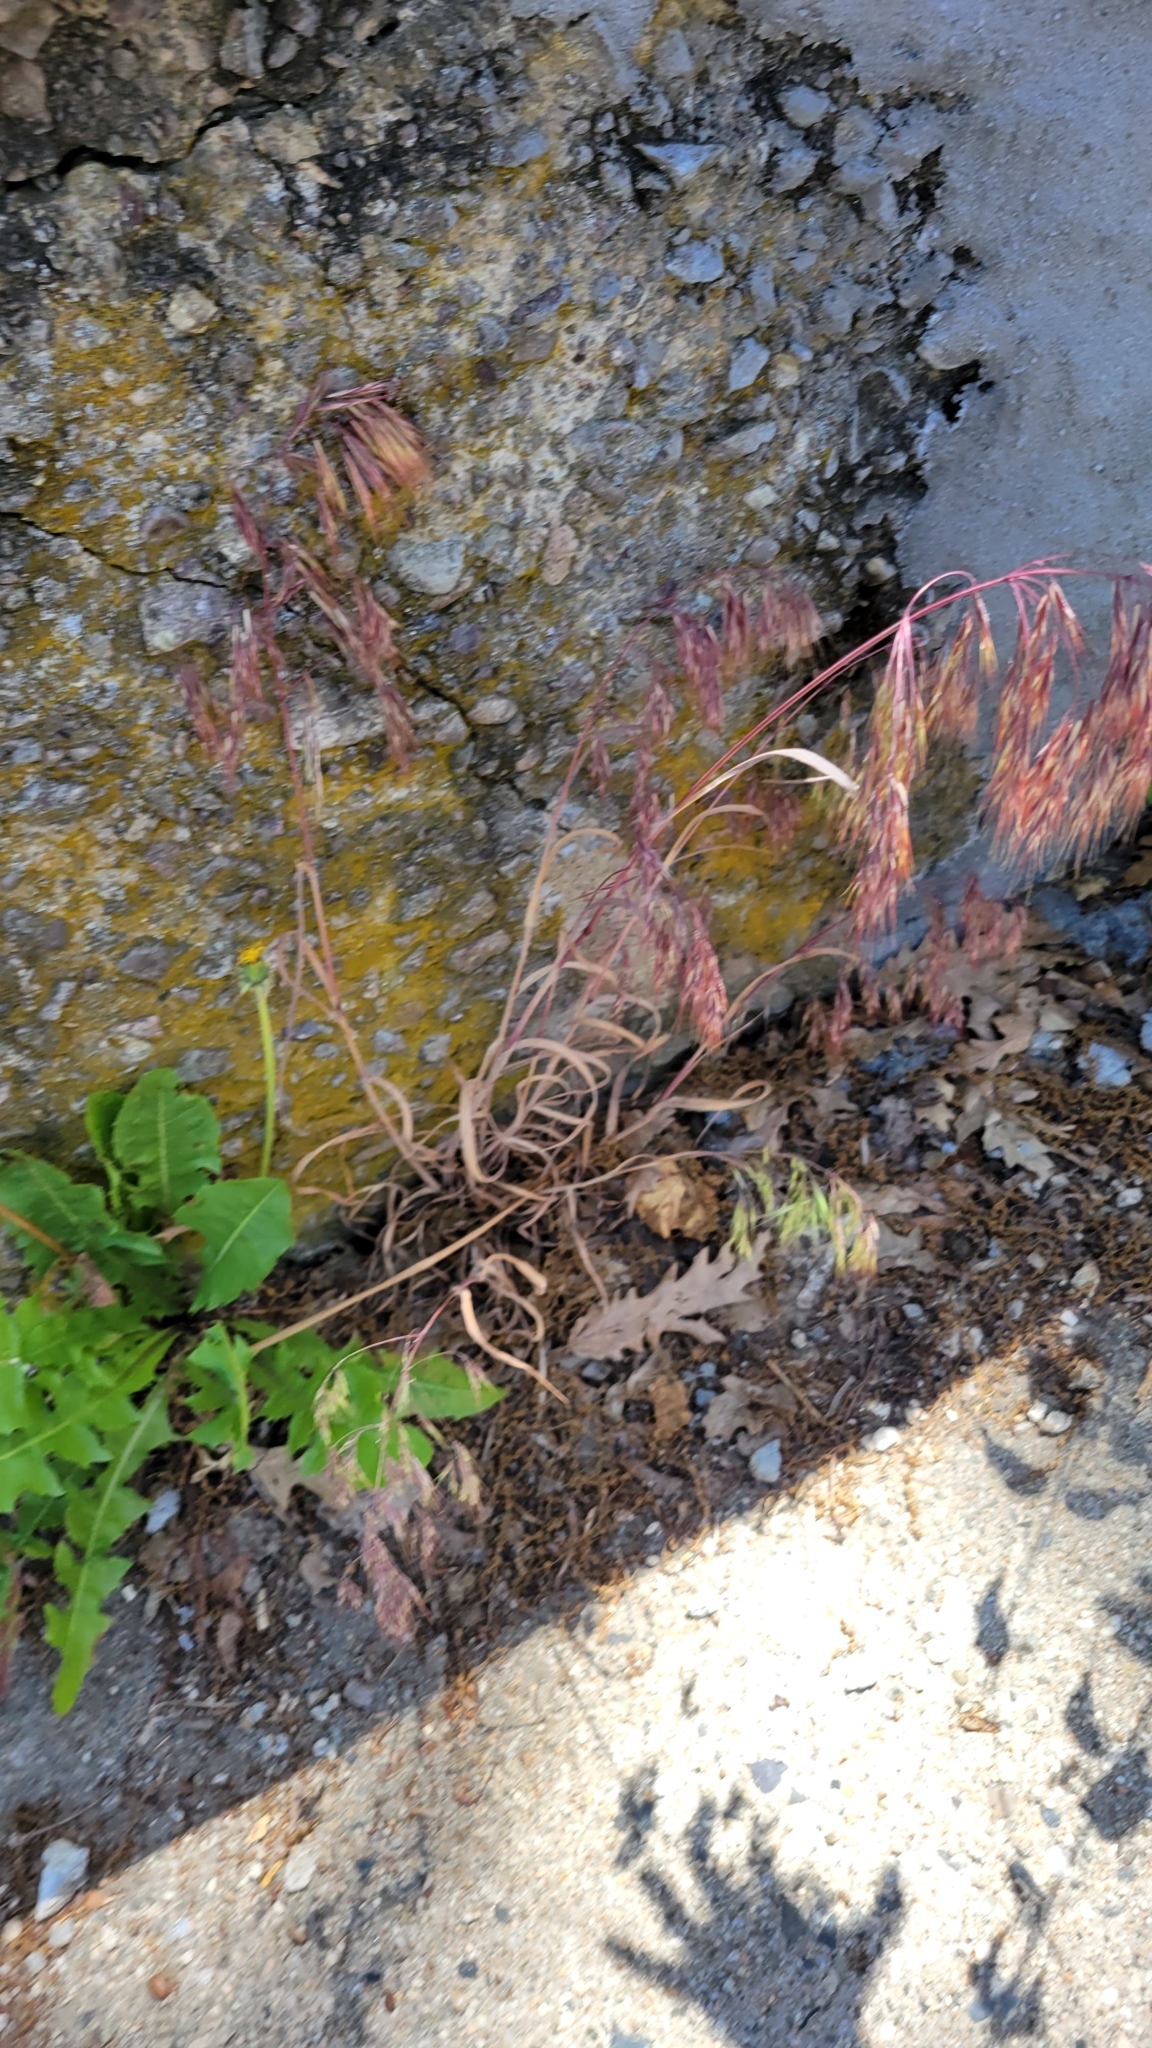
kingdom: Plantae
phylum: Tracheophyta
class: Liliopsida
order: Poales
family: Poaceae
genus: Bromus
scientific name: Bromus tectorum
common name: Cheatgrass
